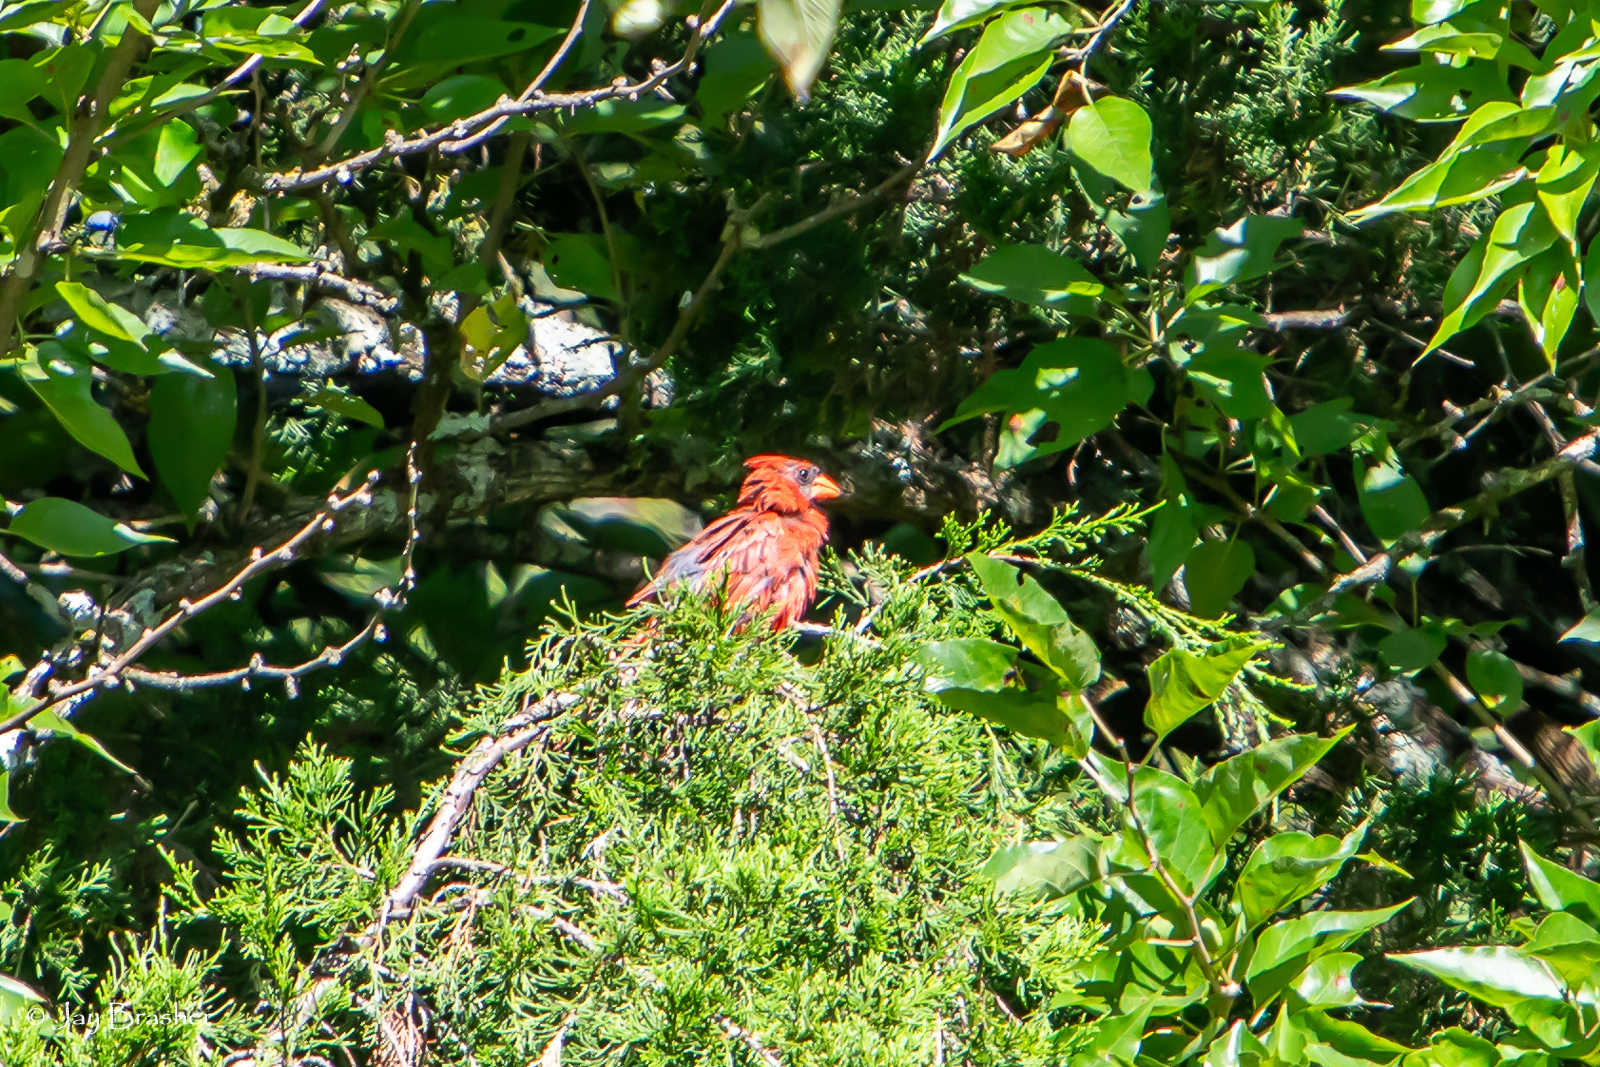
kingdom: Animalia
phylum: Chordata
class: Aves
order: Passeriformes
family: Cardinalidae
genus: Cardinalis
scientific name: Cardinalis cardinalis
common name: Northern cardinal
